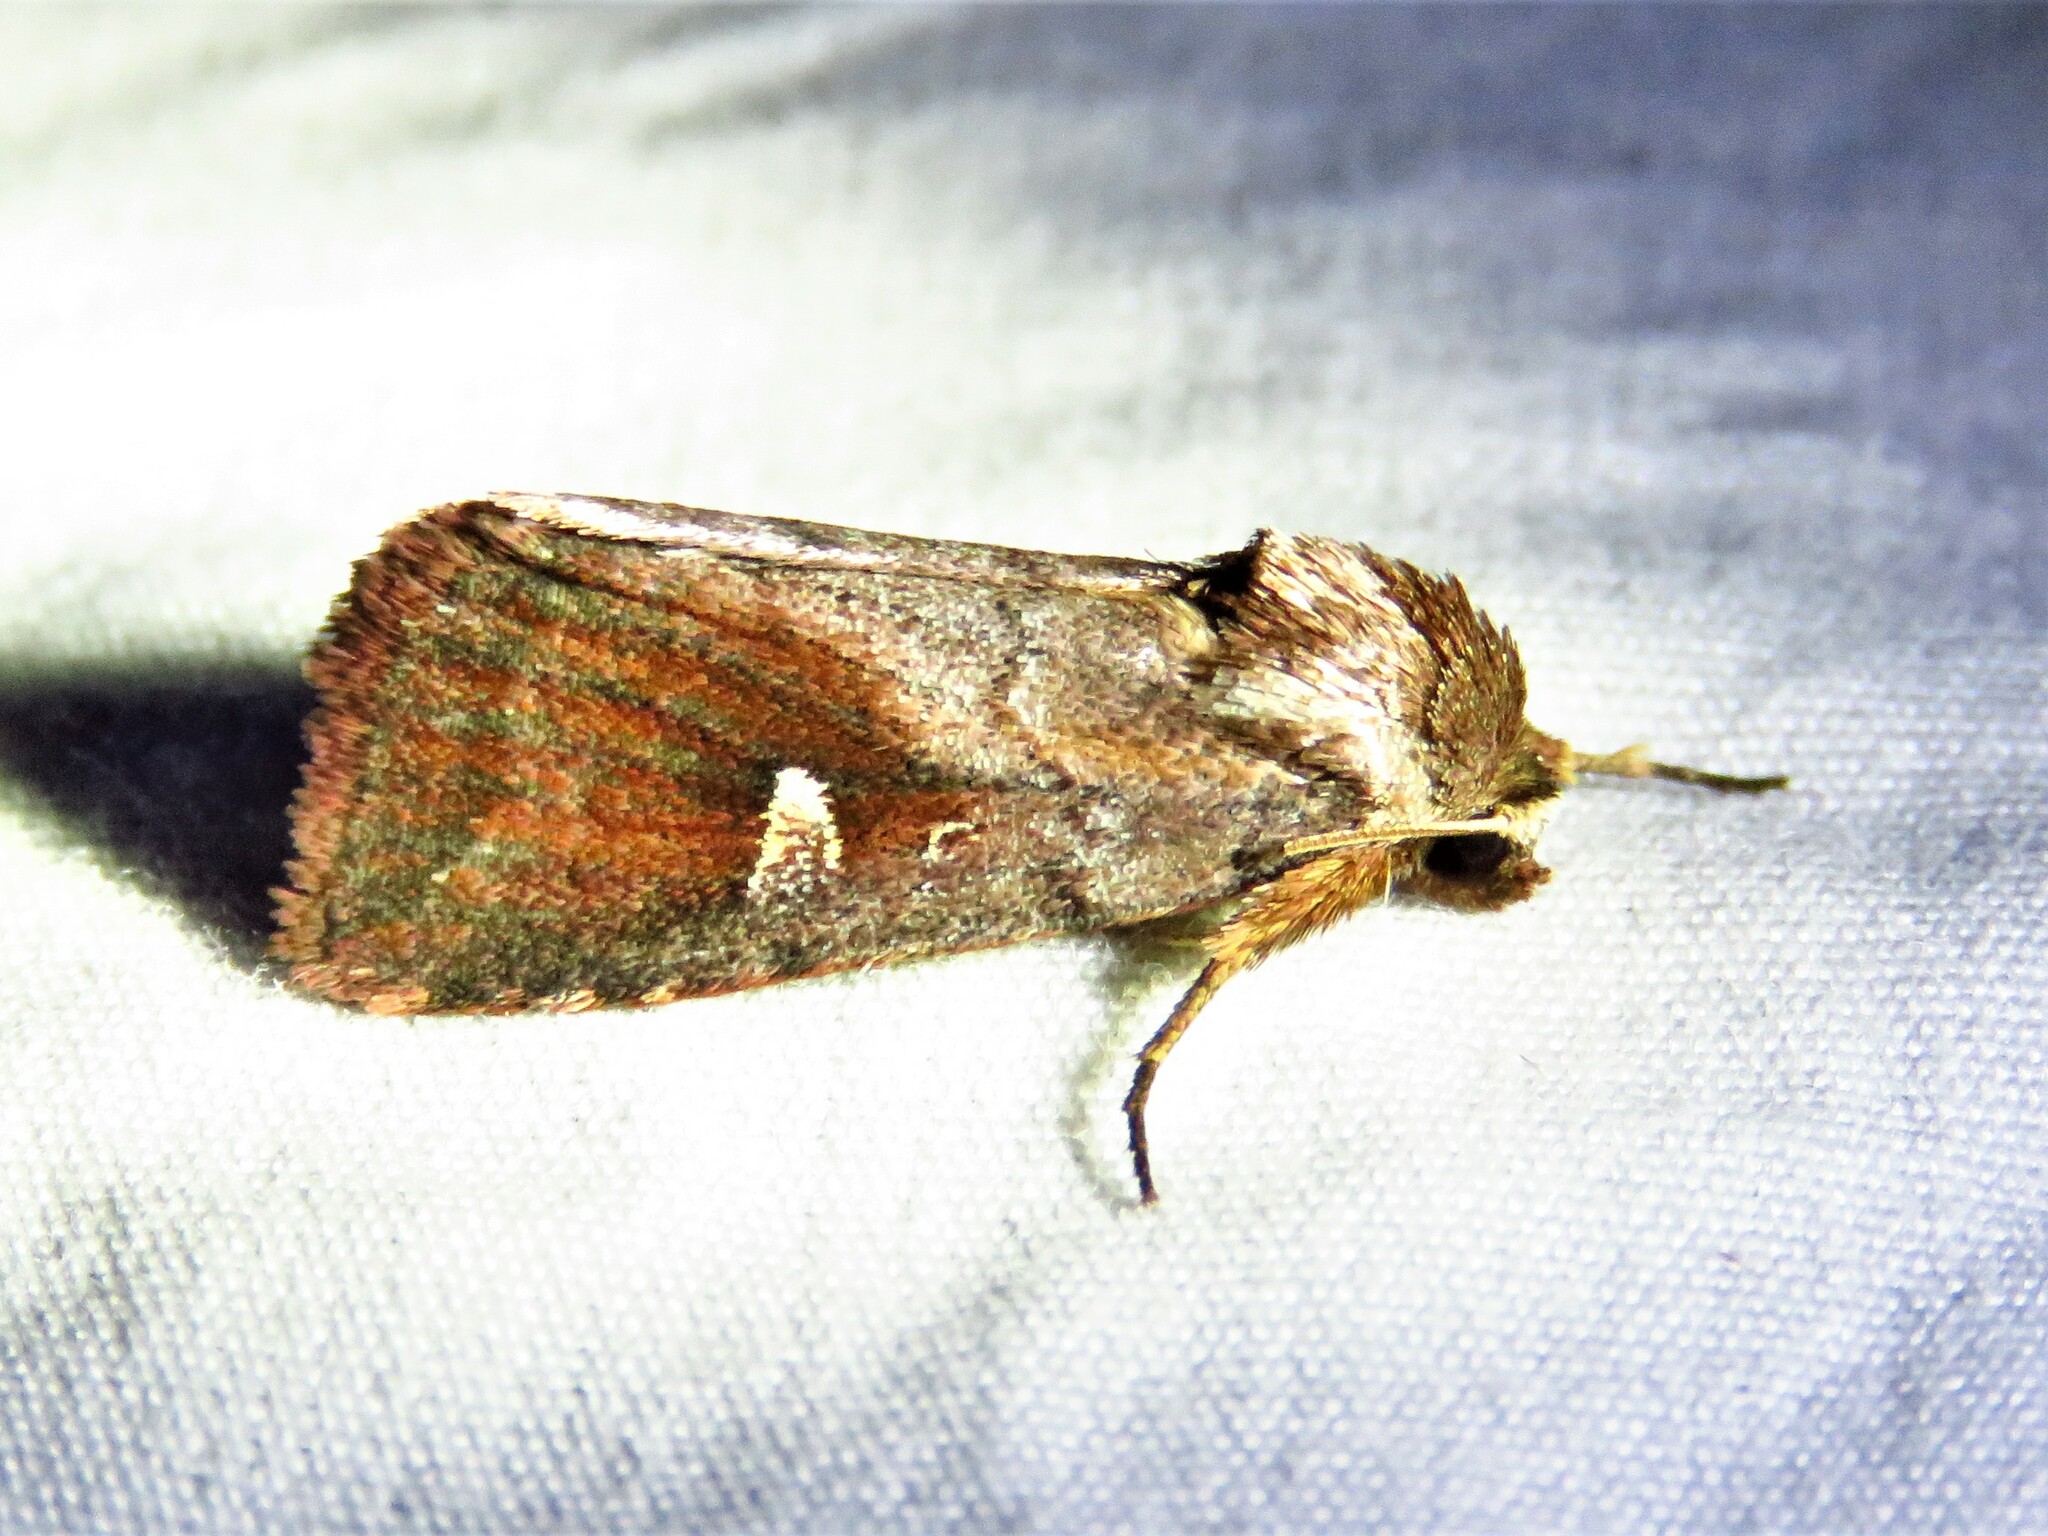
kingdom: Animalia
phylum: Arthropoda
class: Insecta
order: Lepidoptera
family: Noctuidae
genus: Iodopepla
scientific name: Iodopepla ualbum
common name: White-eyed borer moth
